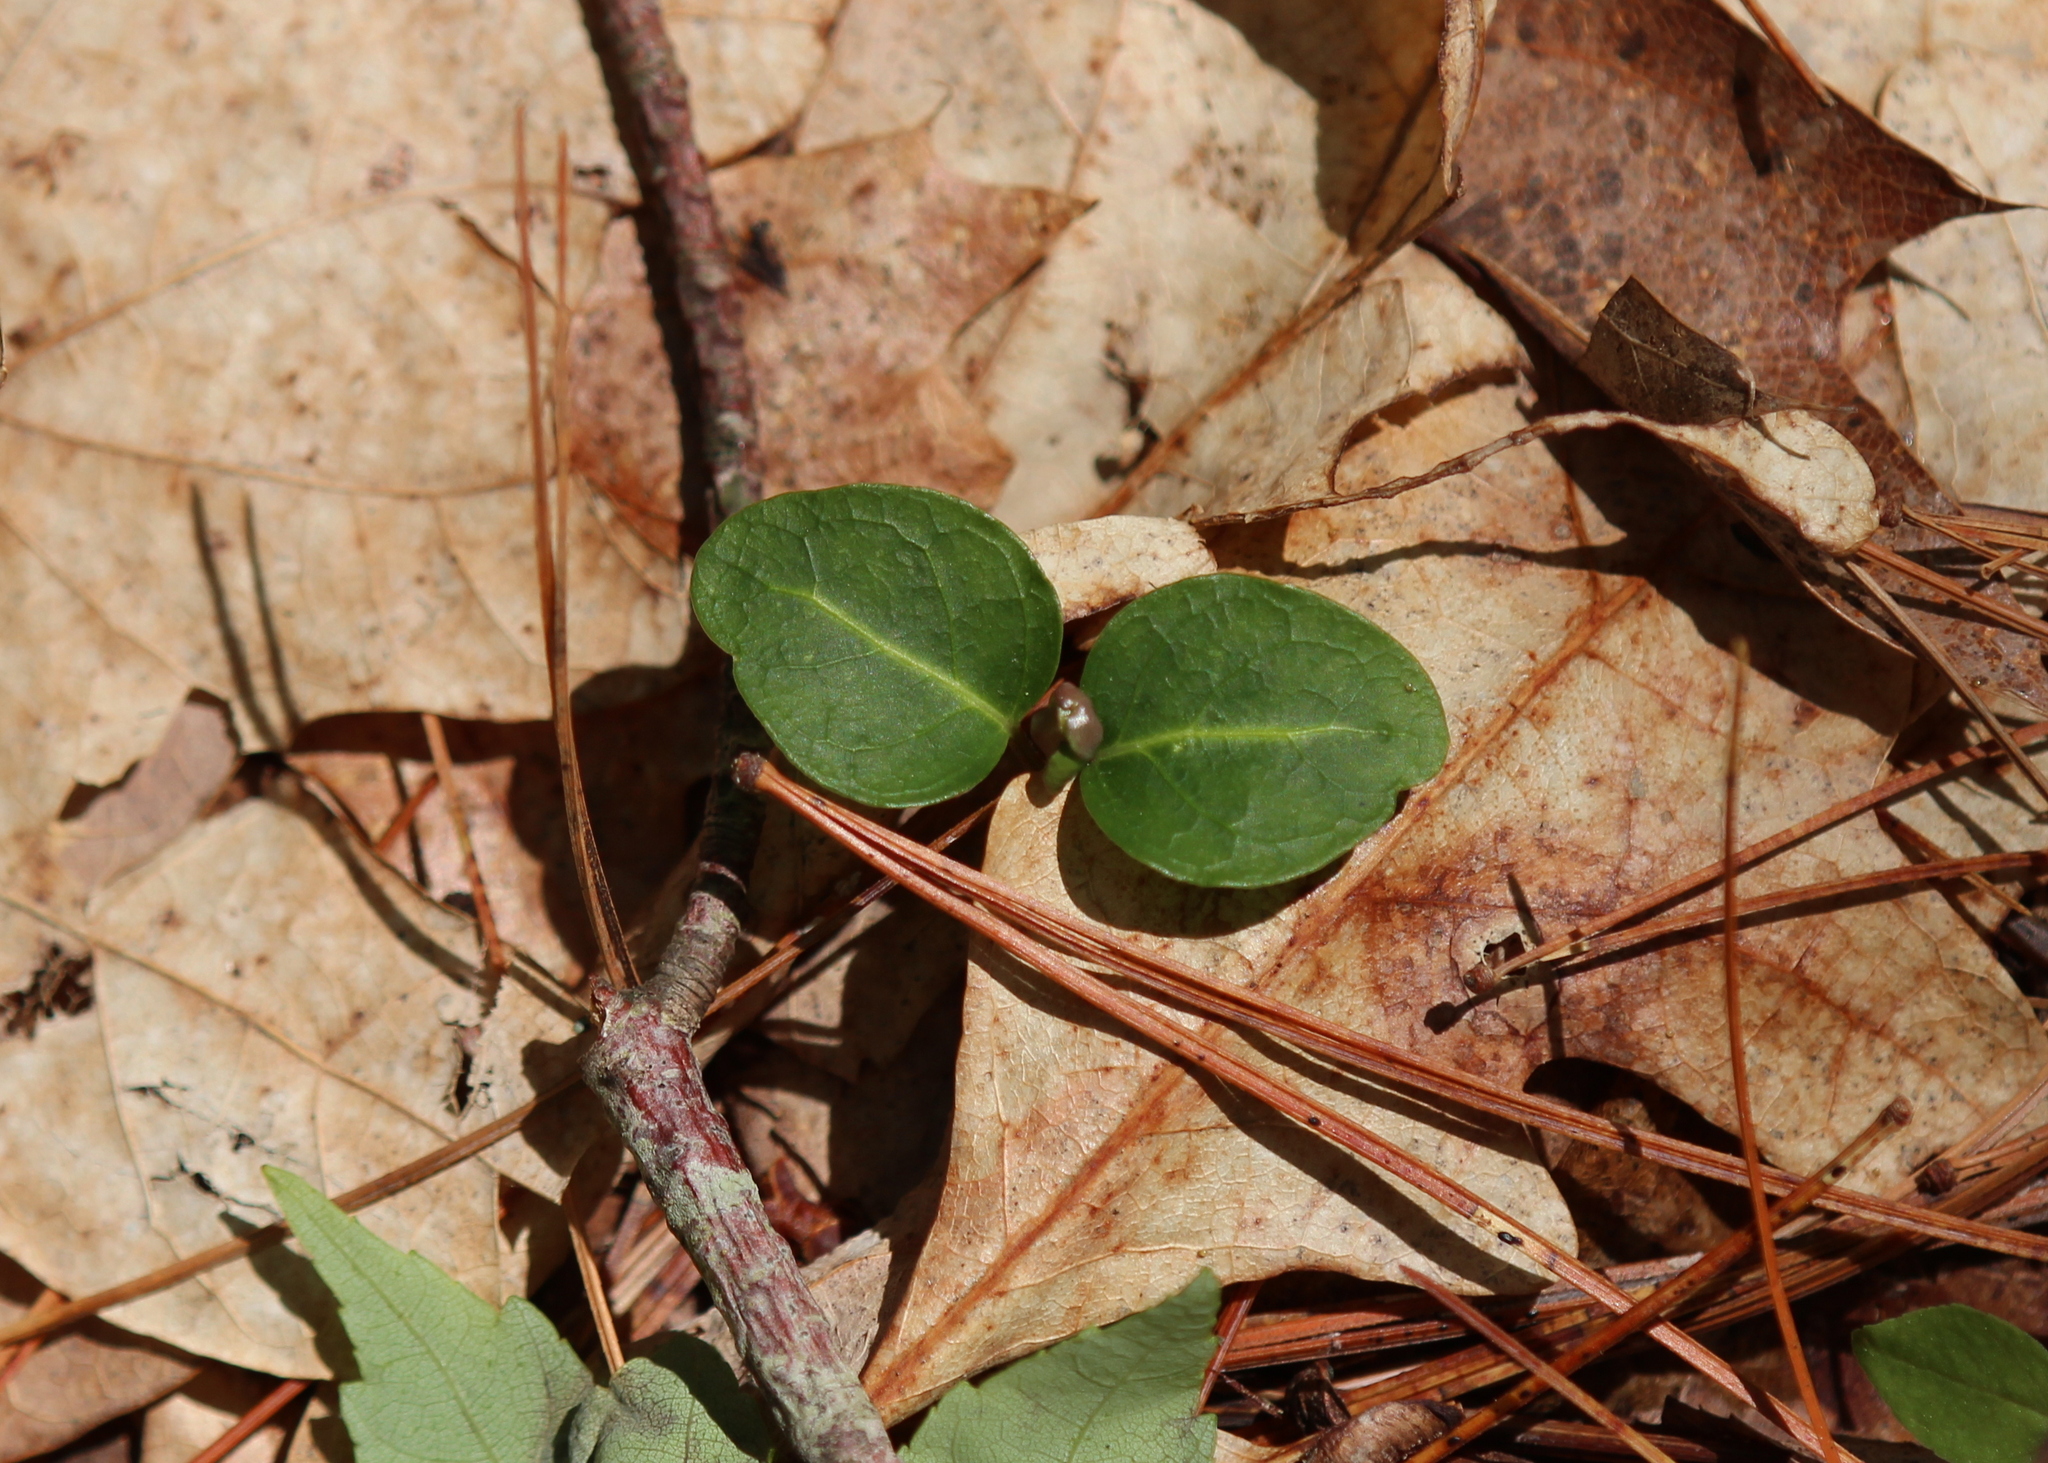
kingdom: Plantae
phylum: Tracheophyta
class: Magnoliopsida
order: Gentianales
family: Rubiaceae
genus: Mitchella
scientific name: Mitchella repens
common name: Partridge-berry
